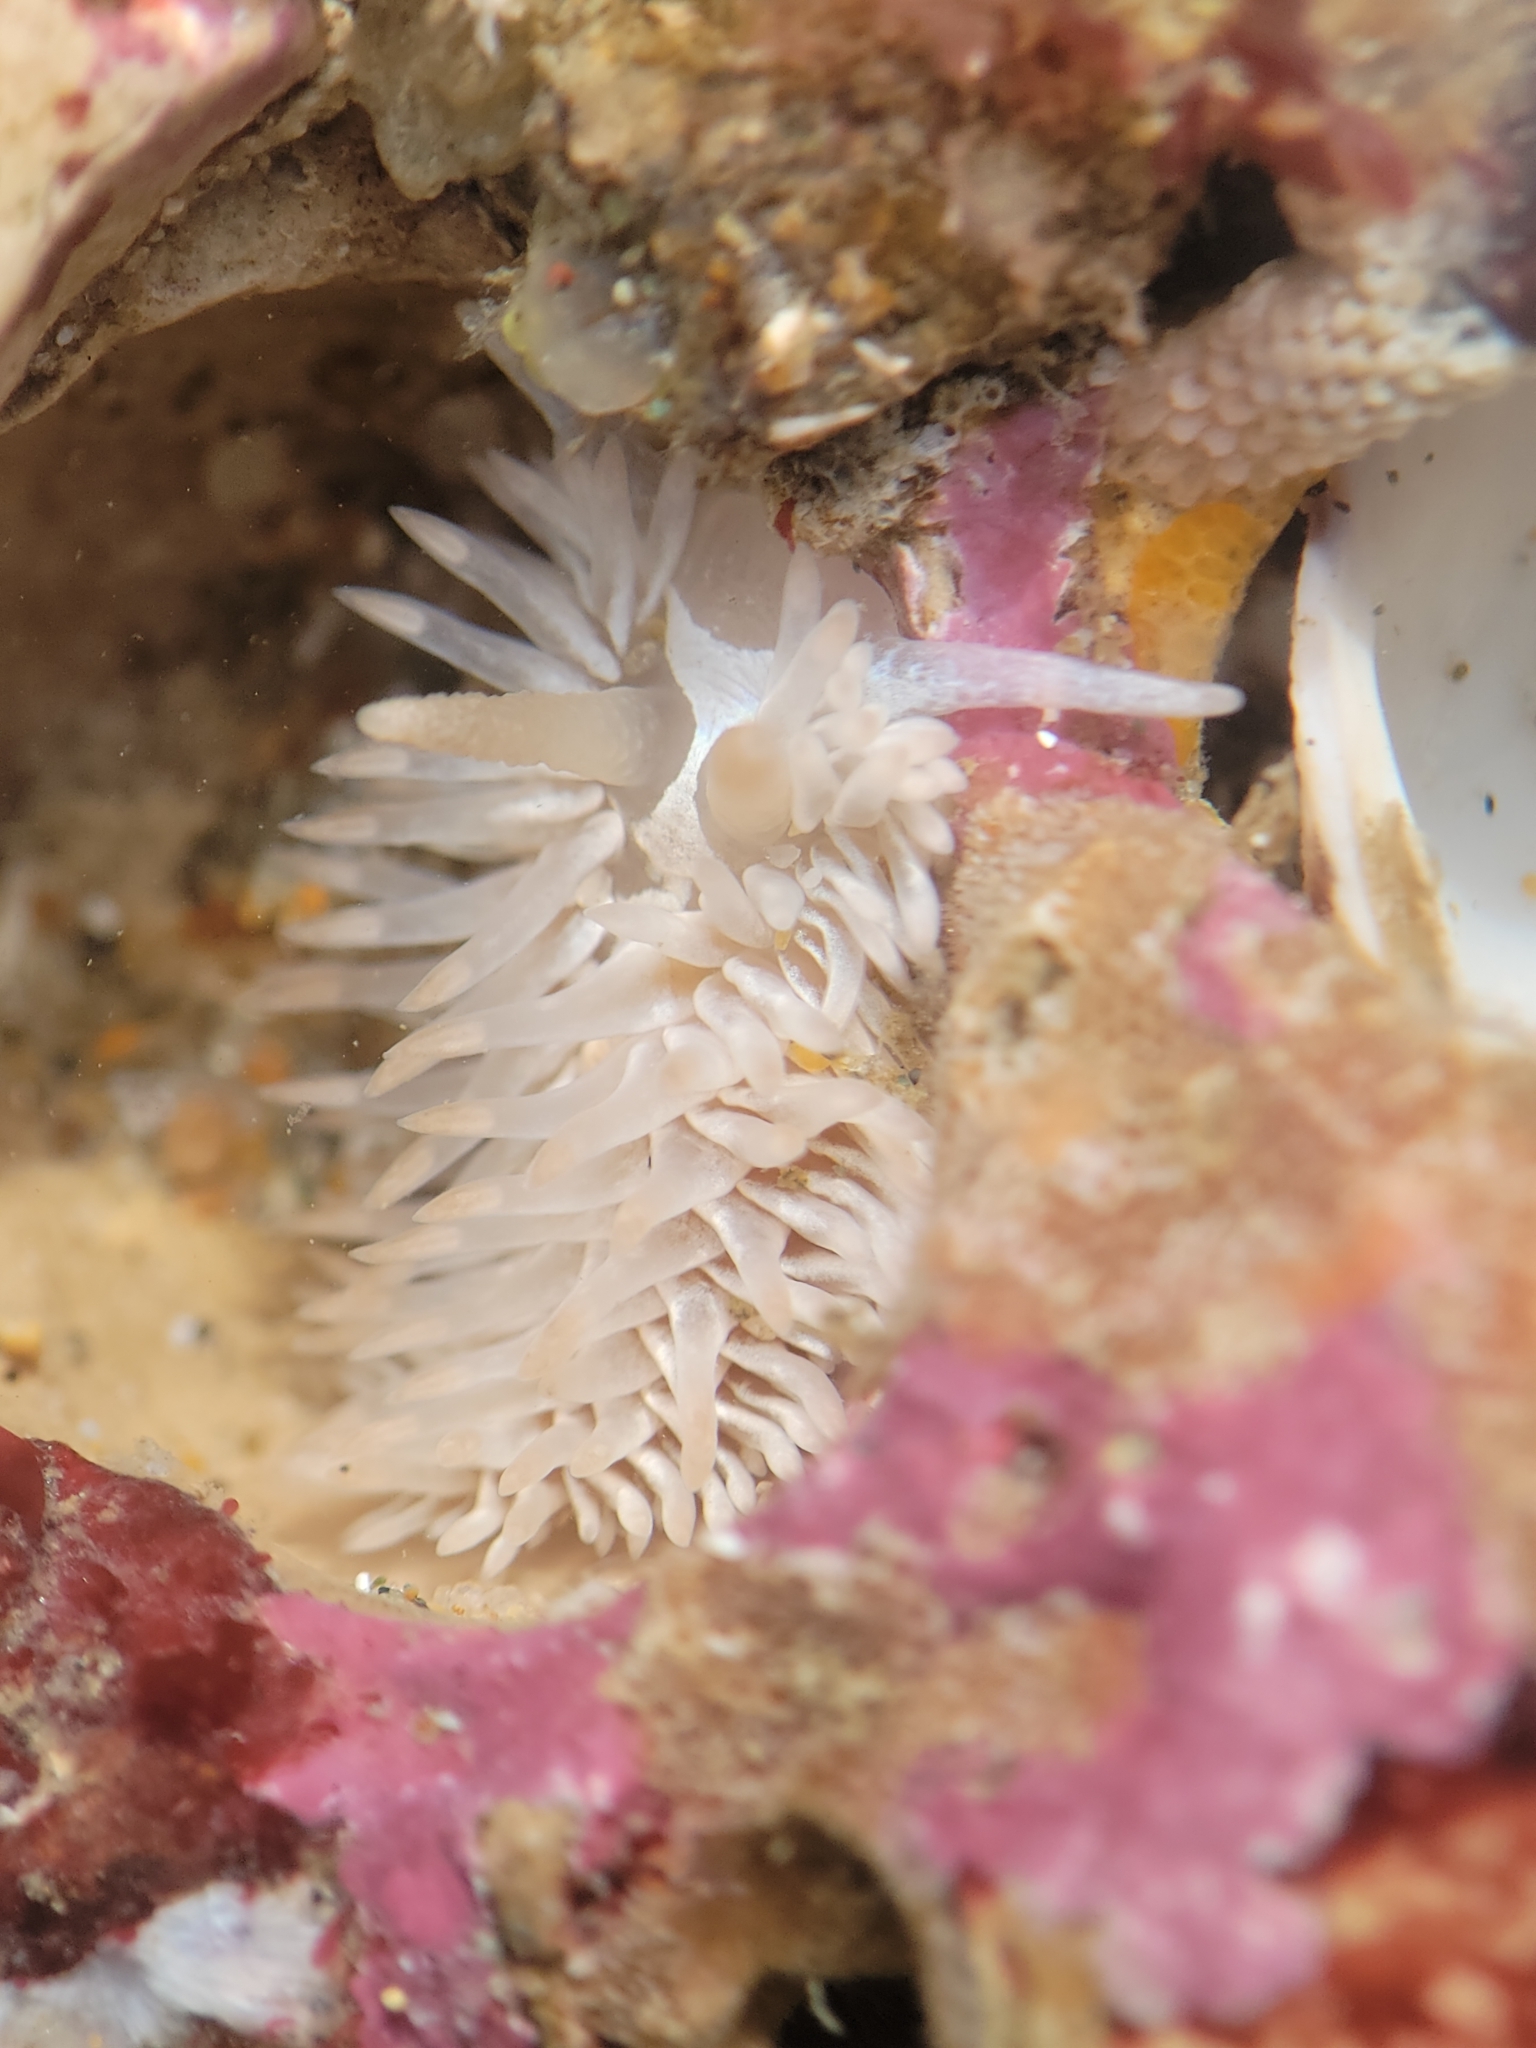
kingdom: Animalia
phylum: Mollusca
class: Gastropoda
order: Nudibranchia
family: Aeolidiidae
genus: Aeolidia
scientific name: Aeolidia loui
